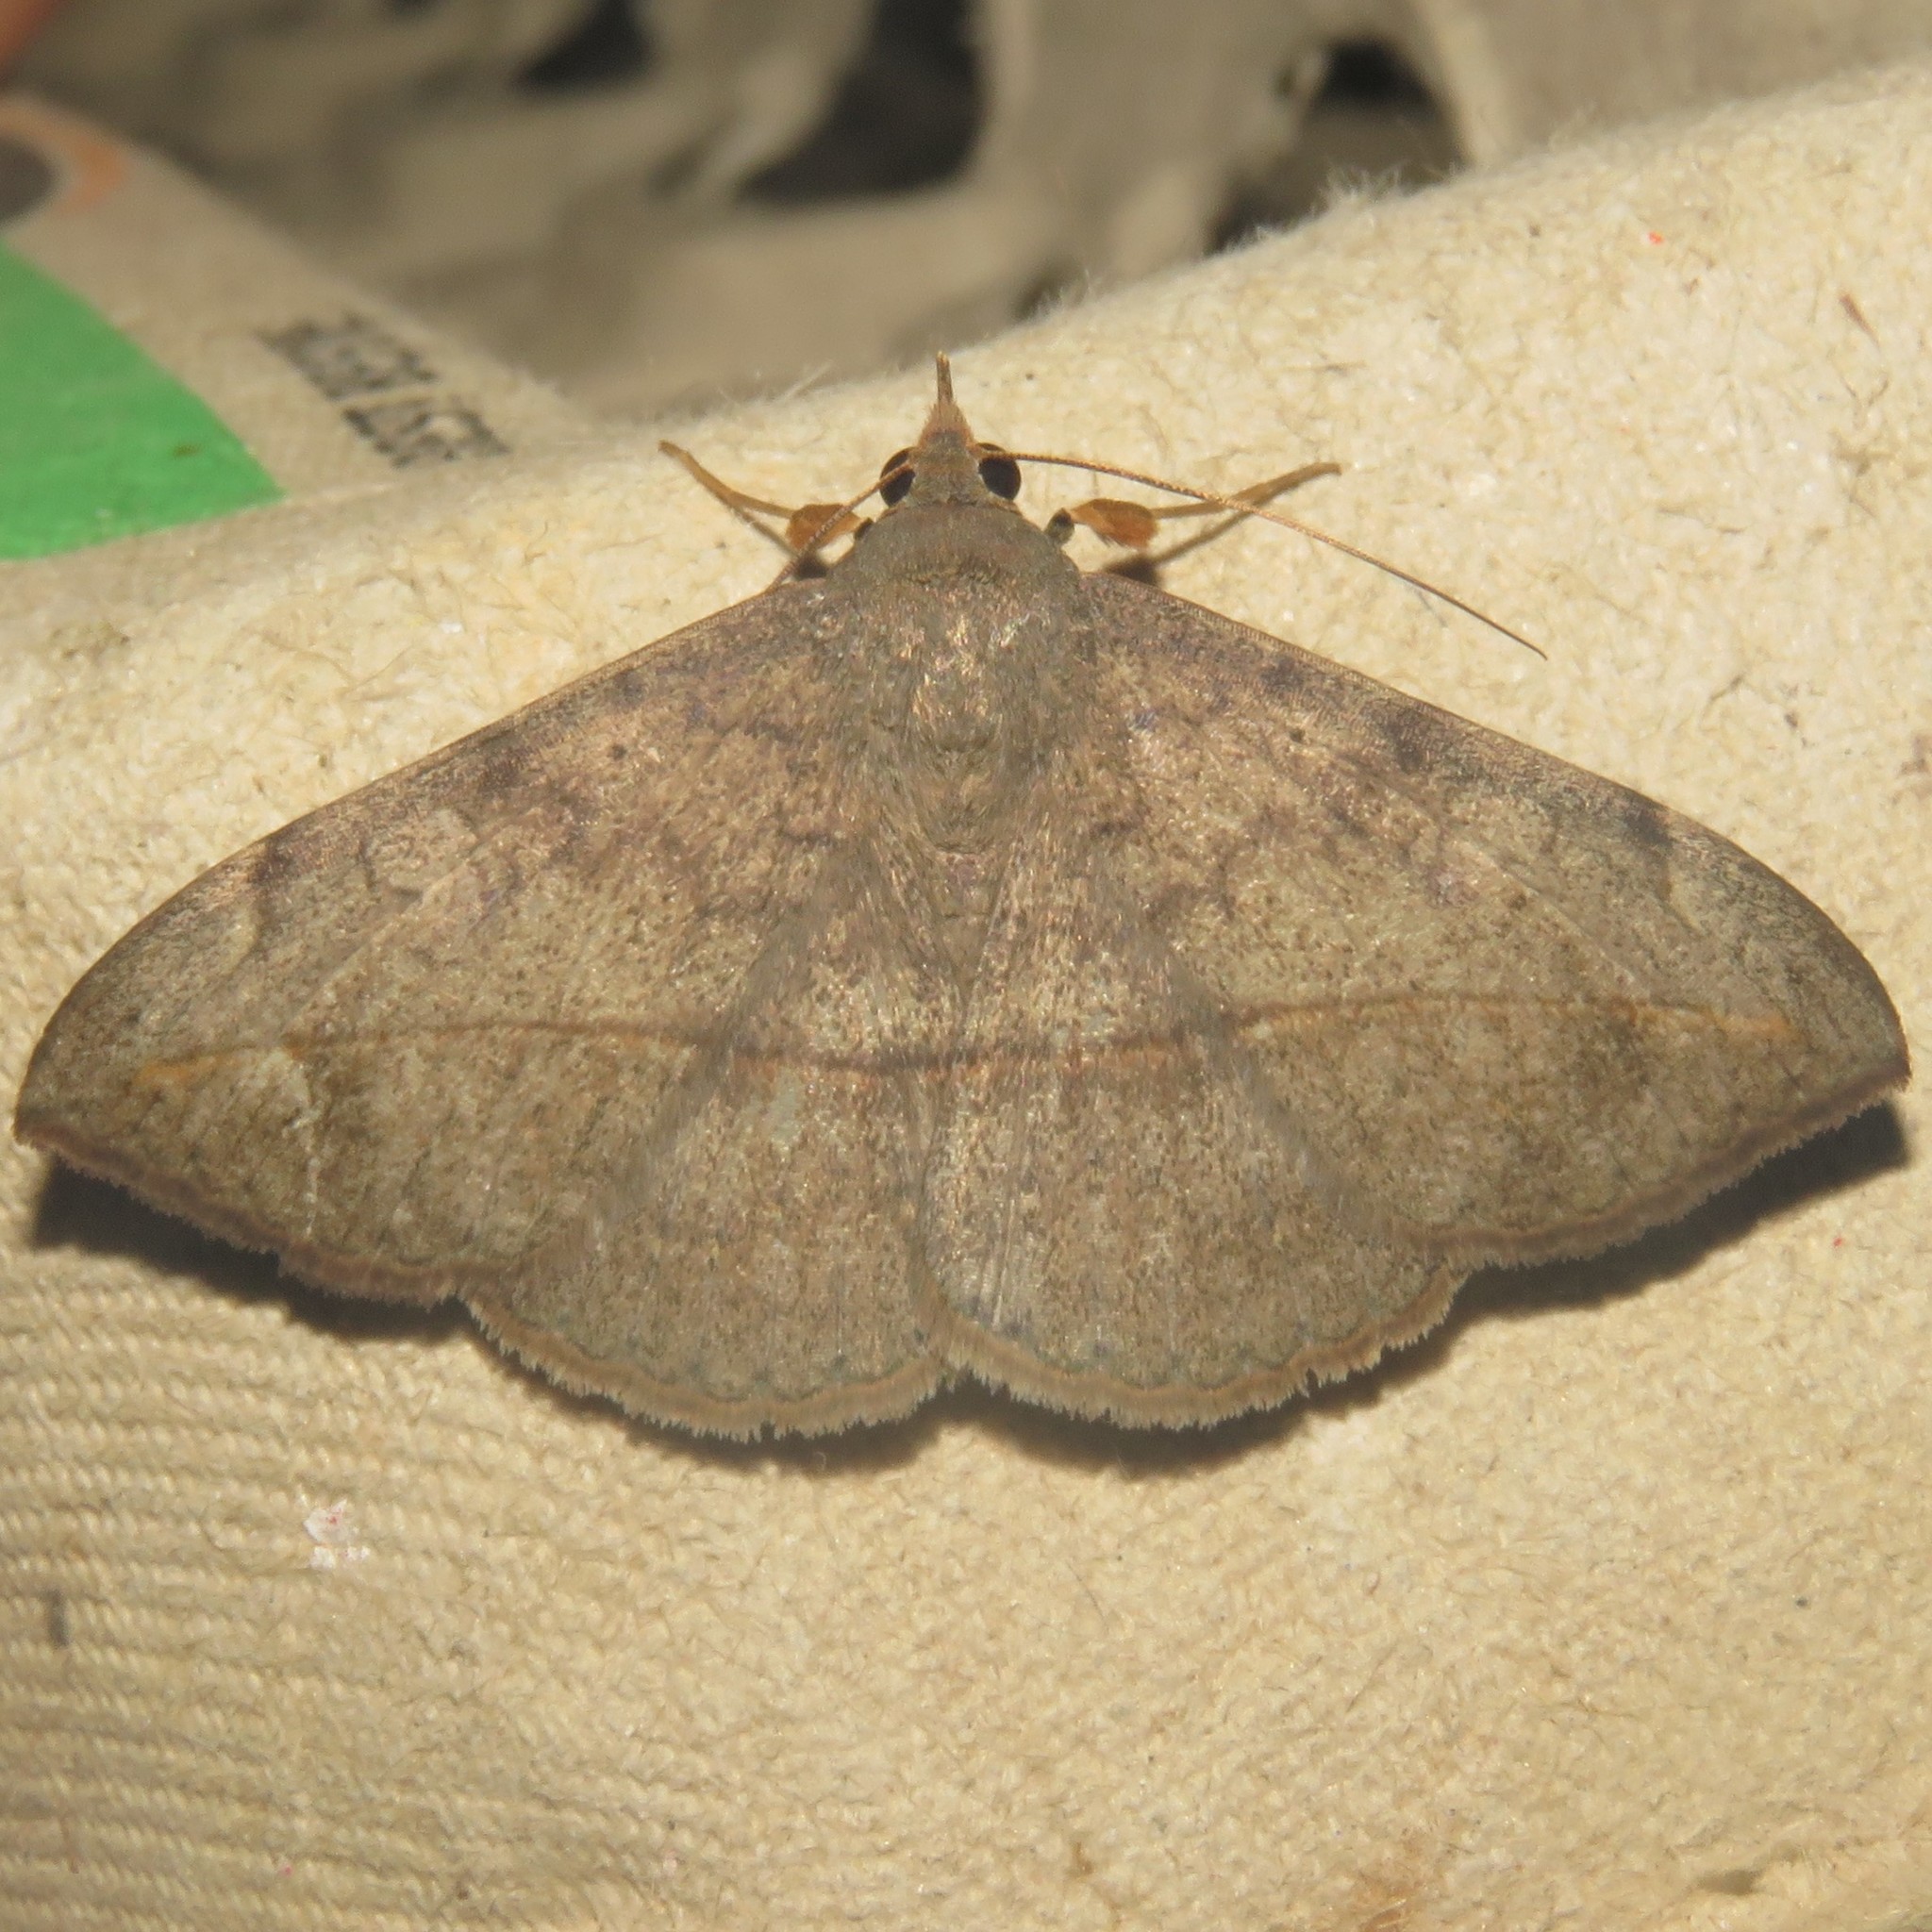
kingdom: Animalia
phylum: Arthropoda
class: Insecta
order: Lepidoptera
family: Erebidae
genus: Anticarsia
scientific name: Anticarsia gemmatalis
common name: Cutworm moth
